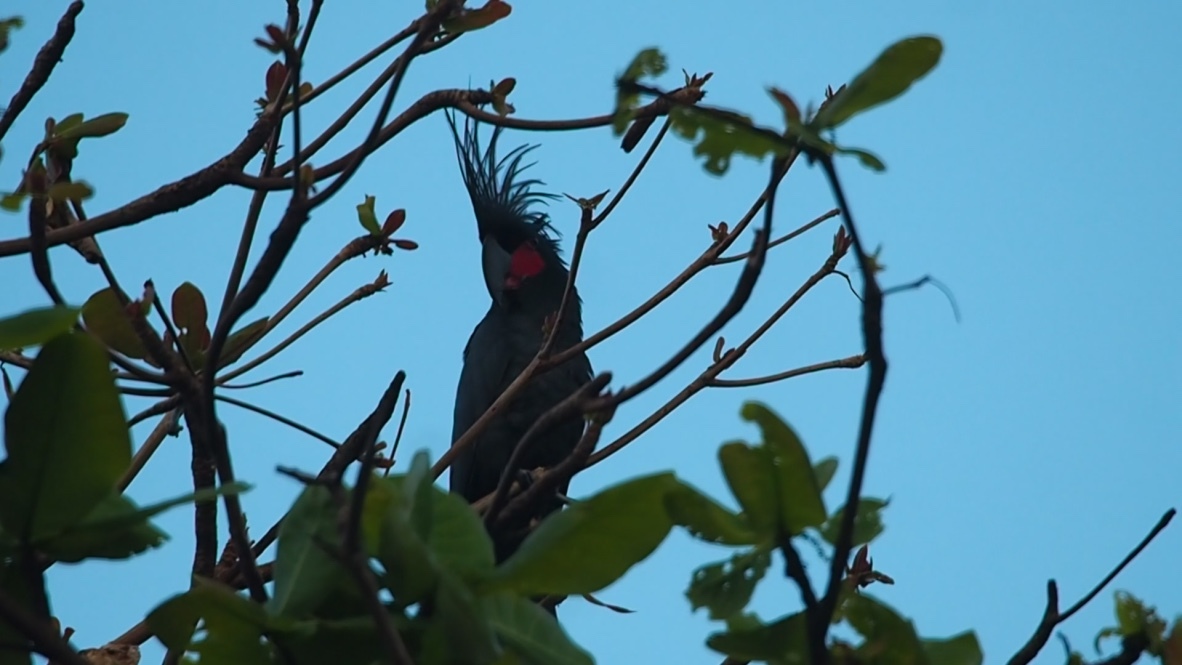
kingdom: Animalia
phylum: Chordata
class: Aves
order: Psittaciformes
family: Psittacidae
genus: Probosciger
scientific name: Probosciger aterrimus
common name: Palm cockatoo
